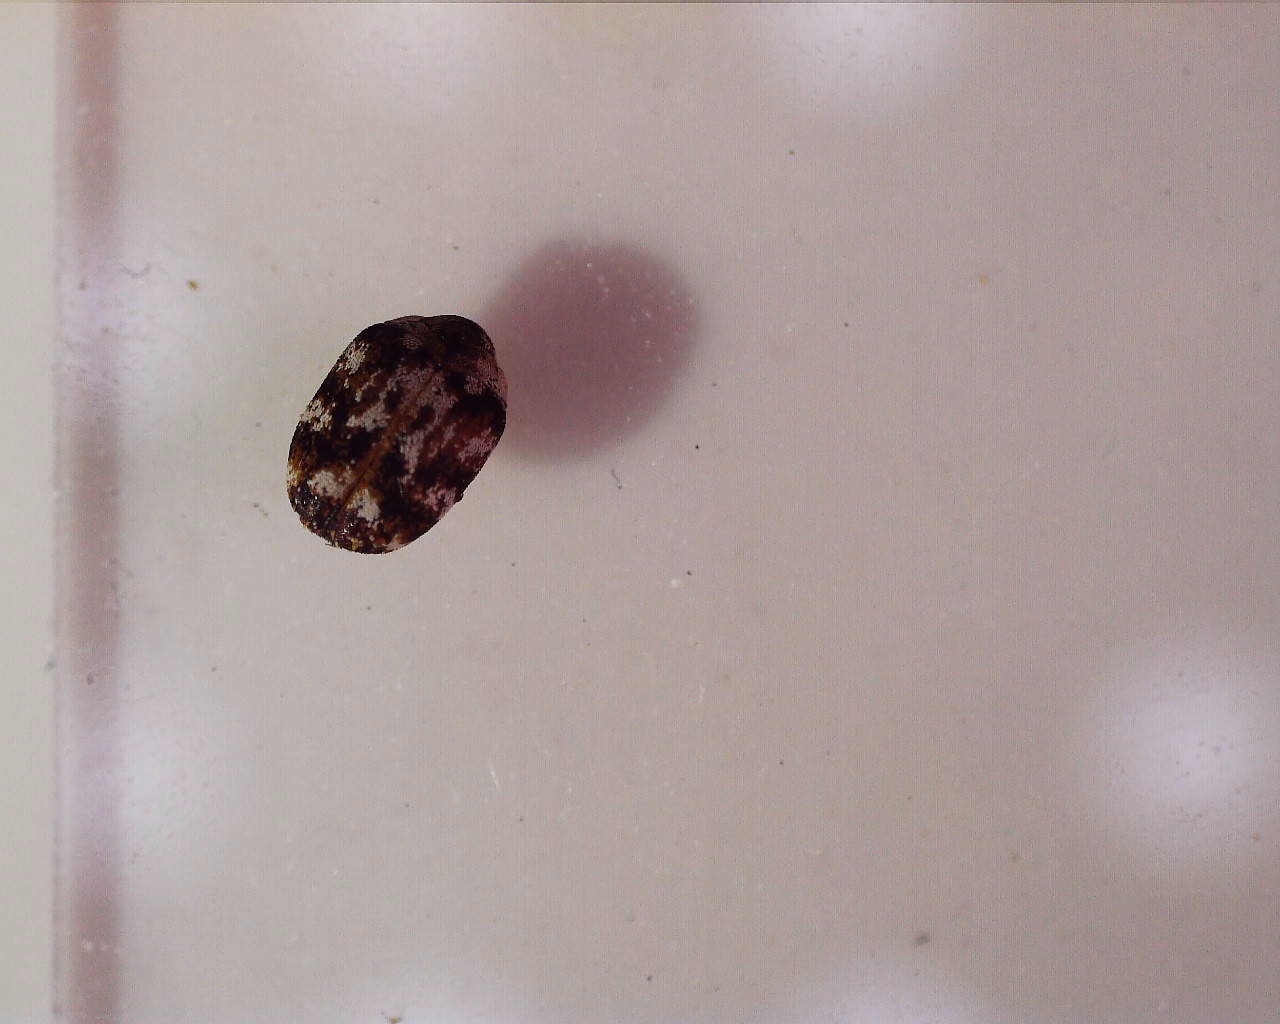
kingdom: Animalia
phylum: Arthropoda
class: Insecta
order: Coleoptera
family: Dermestidae
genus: Anthrenus
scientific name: Anthrenus picturatus
